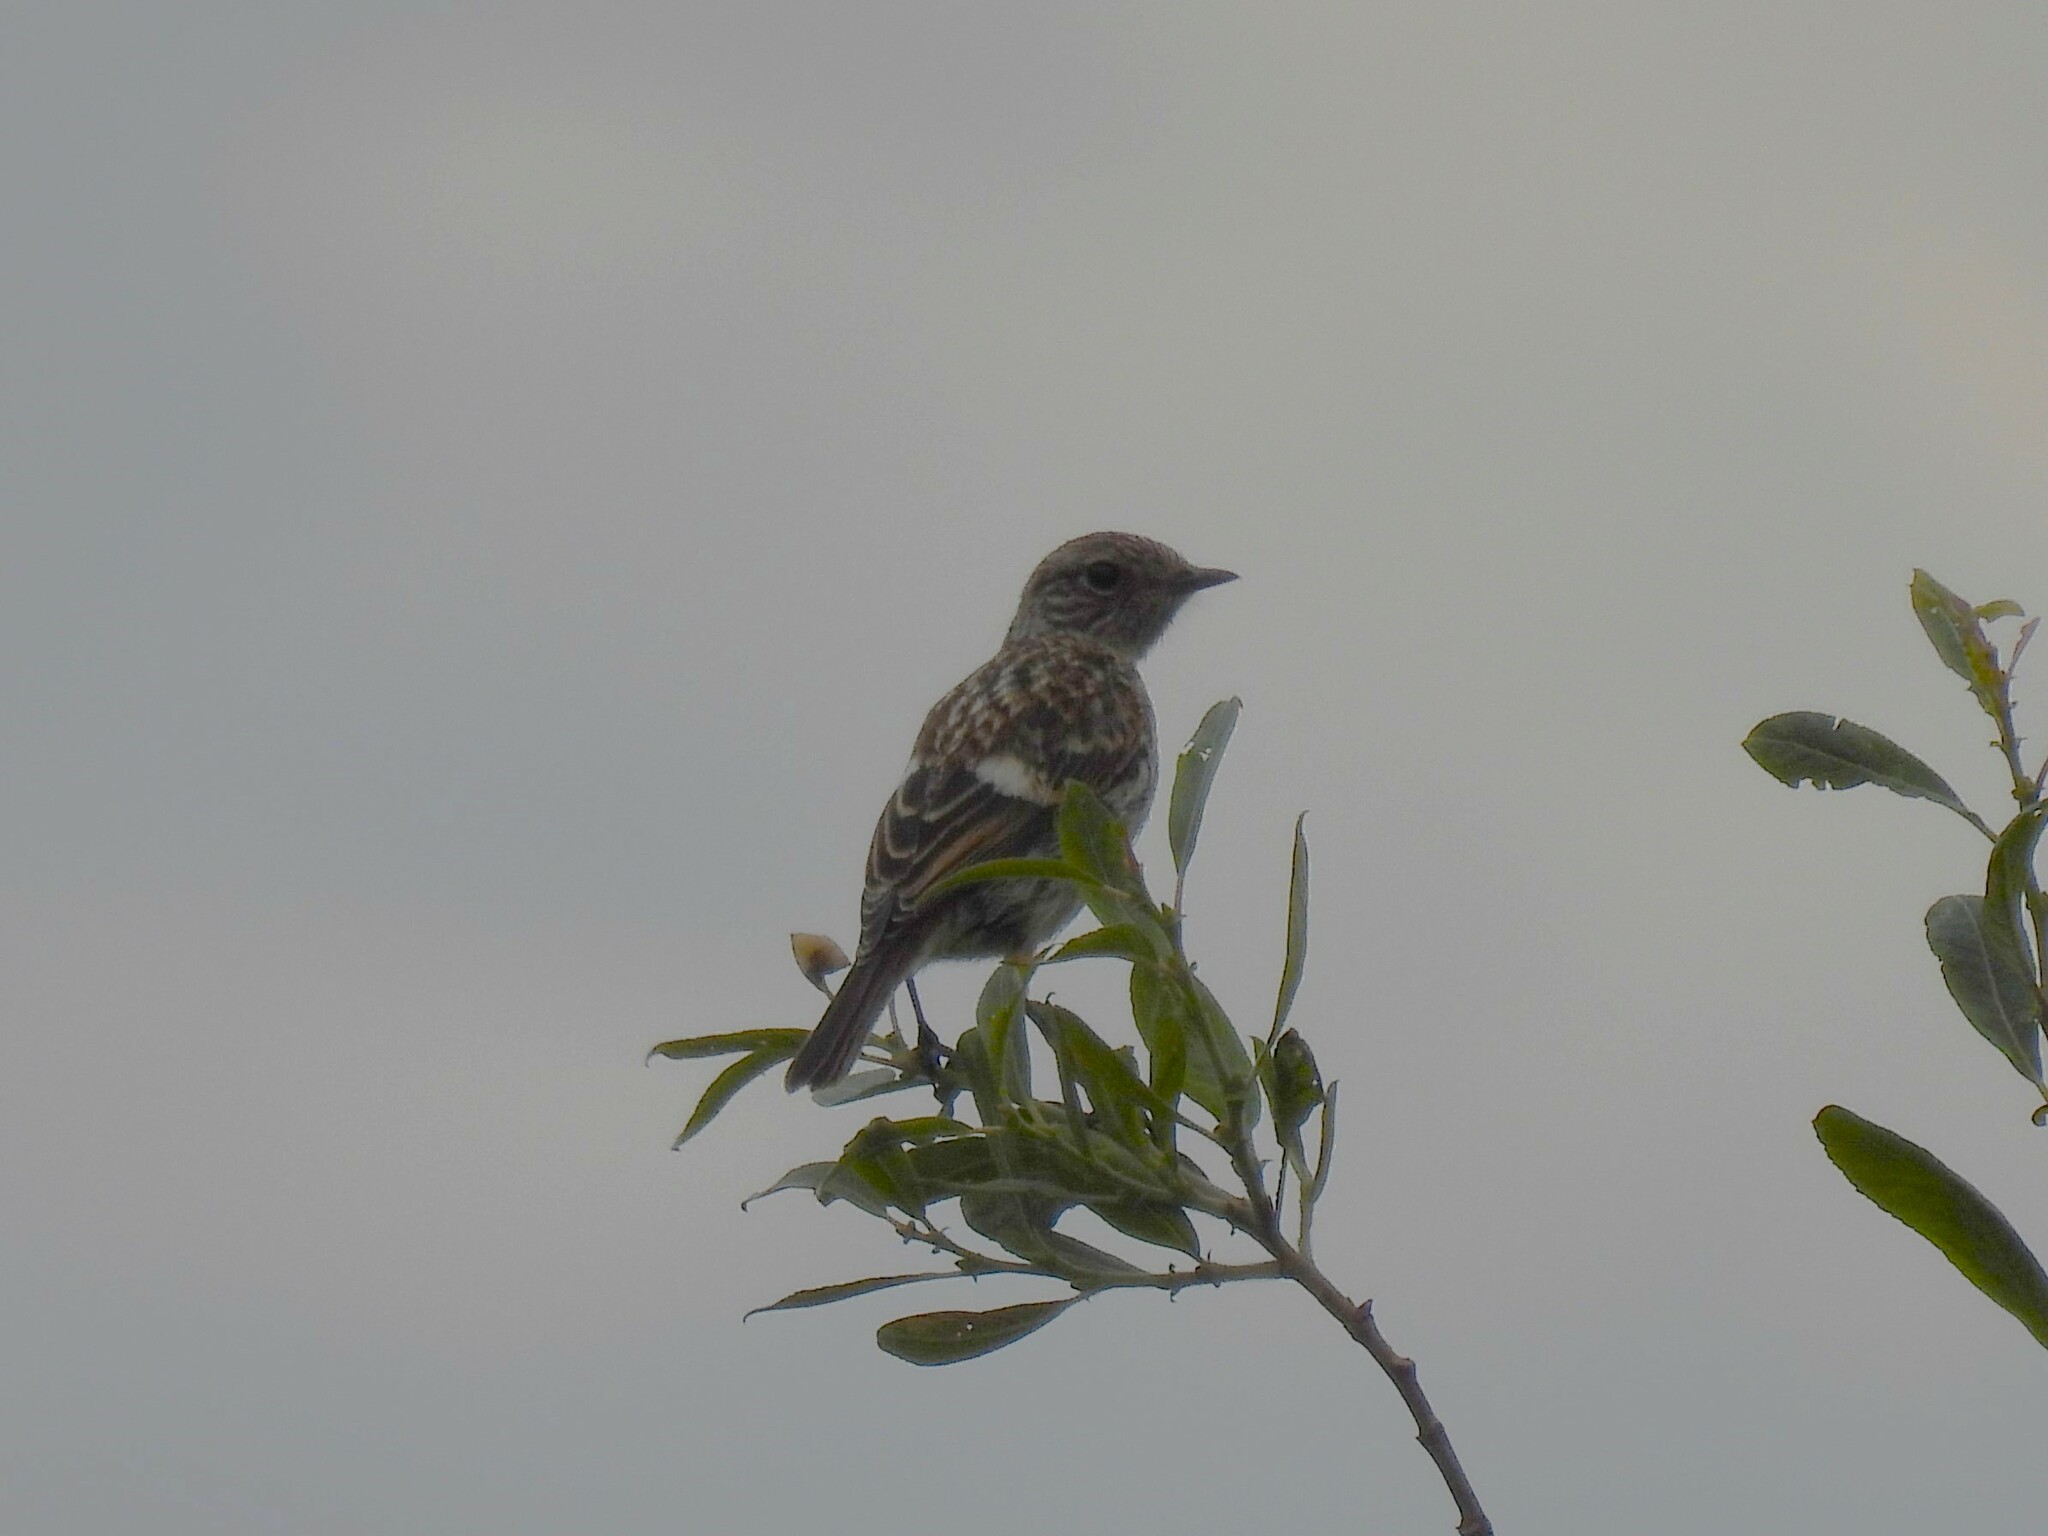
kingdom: Animalia
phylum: Chordata
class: Aves
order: Passeriformes
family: Muscicapidae
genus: Saxicola
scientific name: Saxicola rubicola
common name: European stonechat
